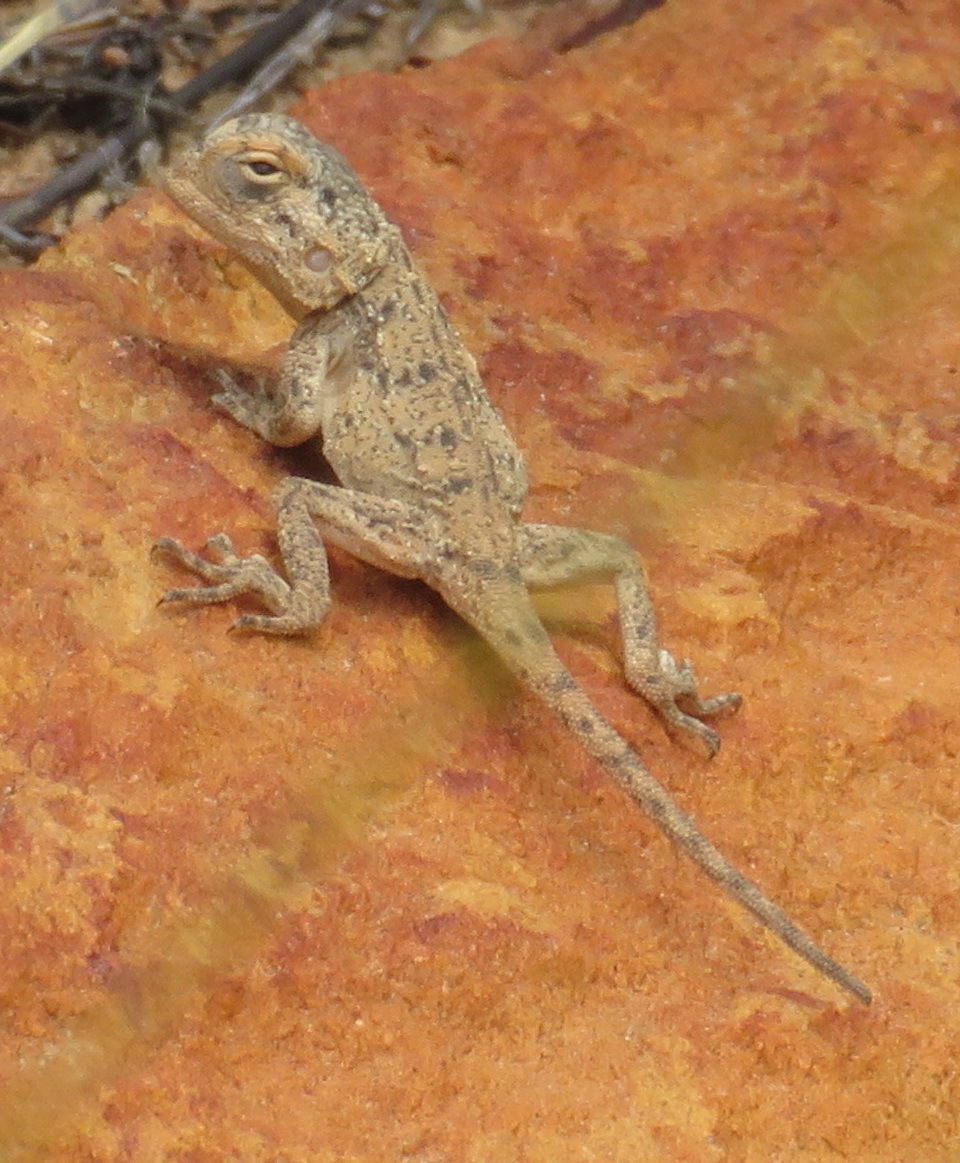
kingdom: Animalia
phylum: Chordata
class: Squamata
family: Agamidae
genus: Agama
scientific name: Agama atra
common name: Southern african rock agama
